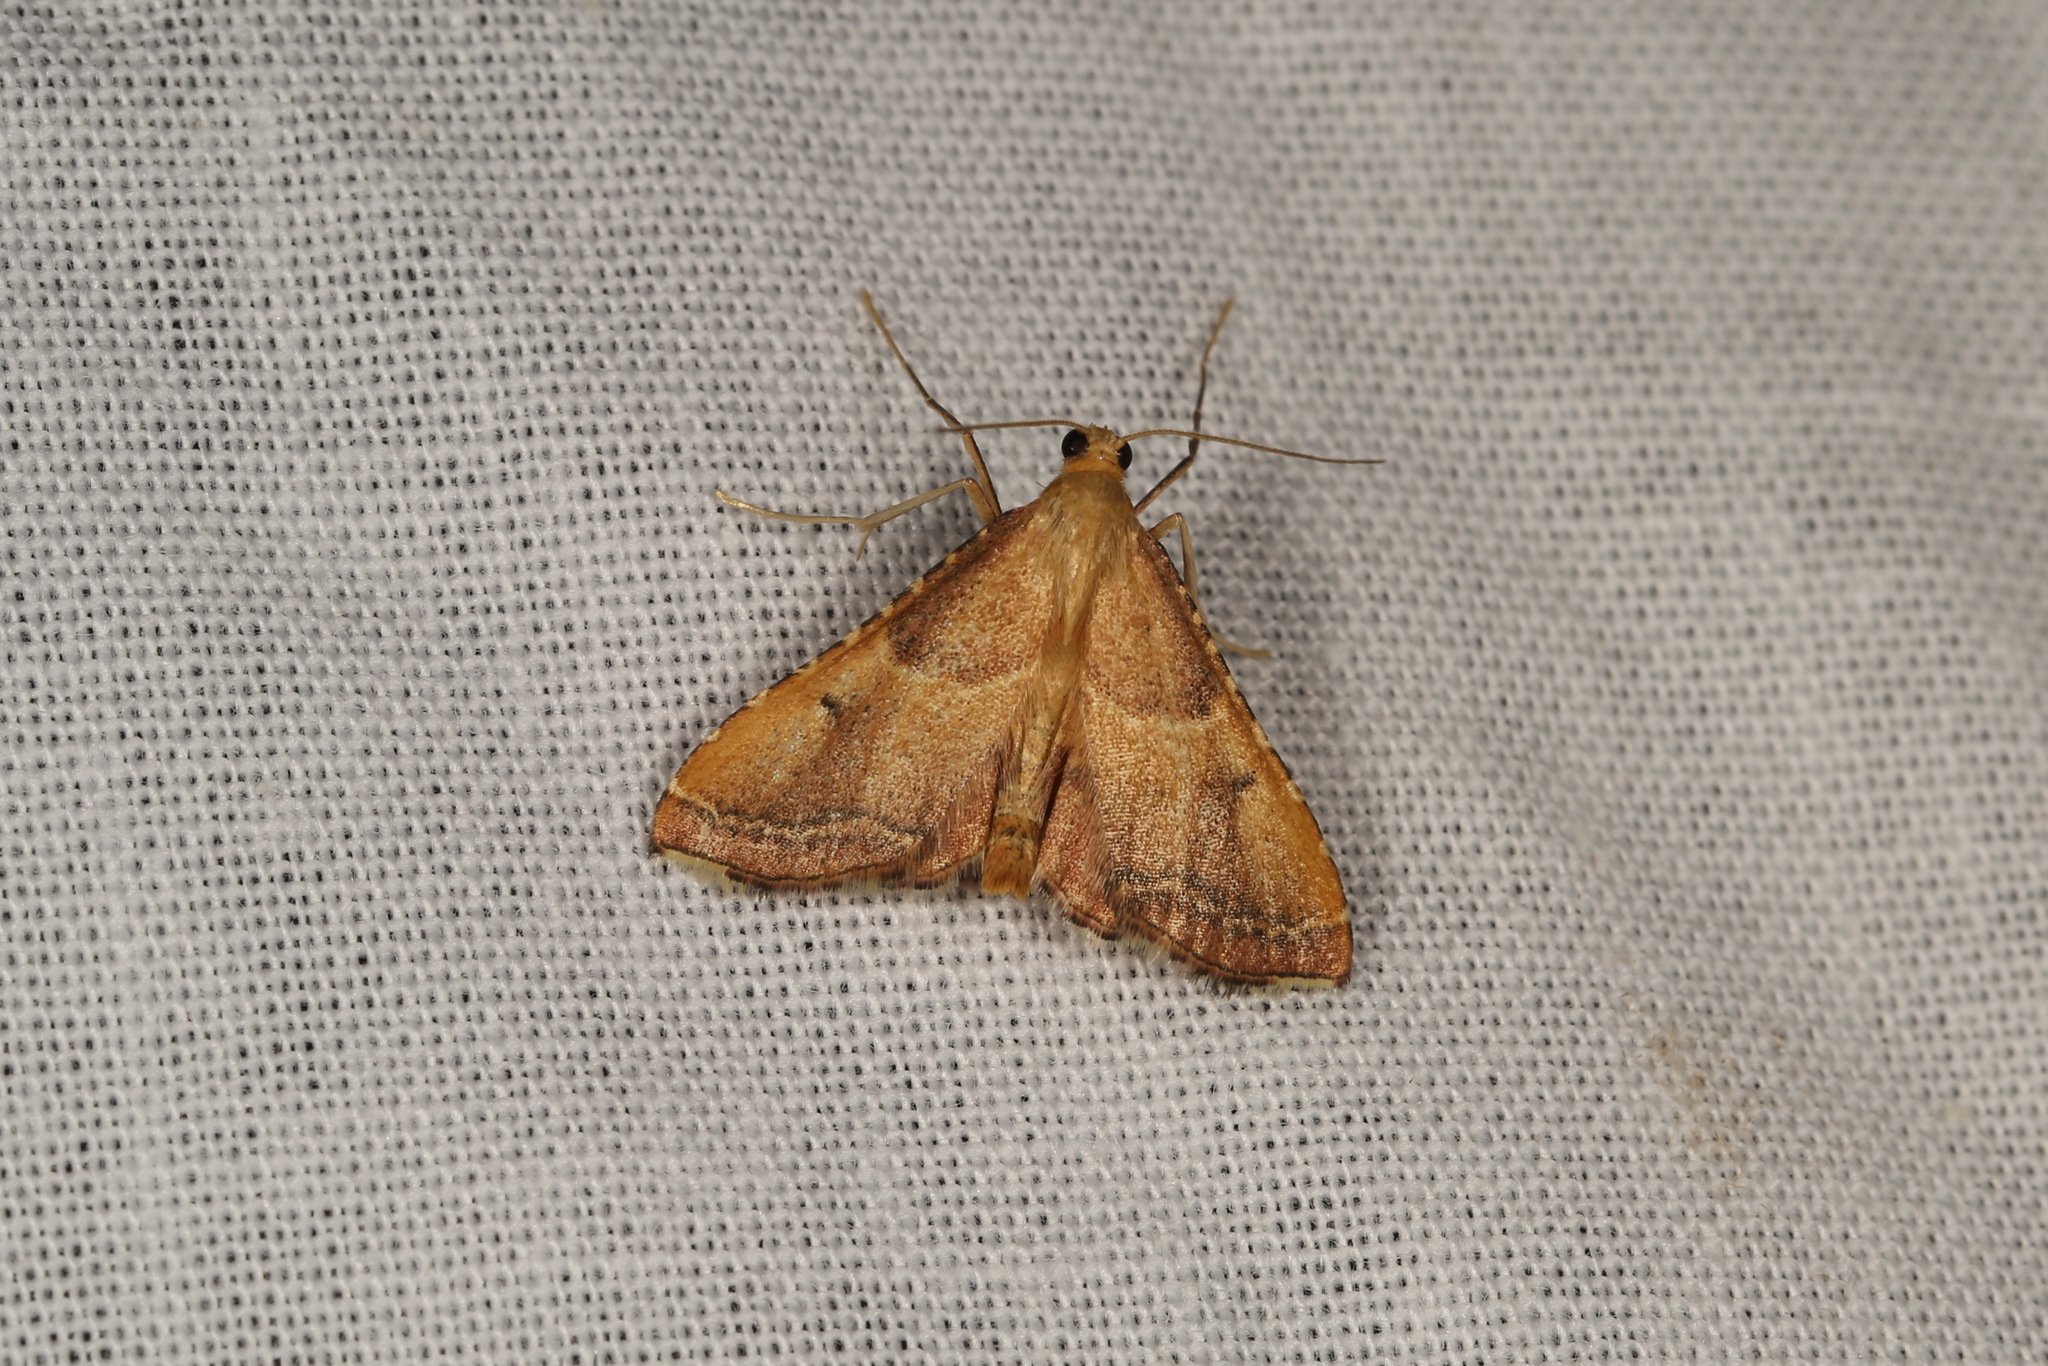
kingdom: Animalia
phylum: Arthropoda
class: Insecta
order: Lepidoptera
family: Pyralidae
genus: Endotricha
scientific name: Endotricha flammealis
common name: Rosy tabby
